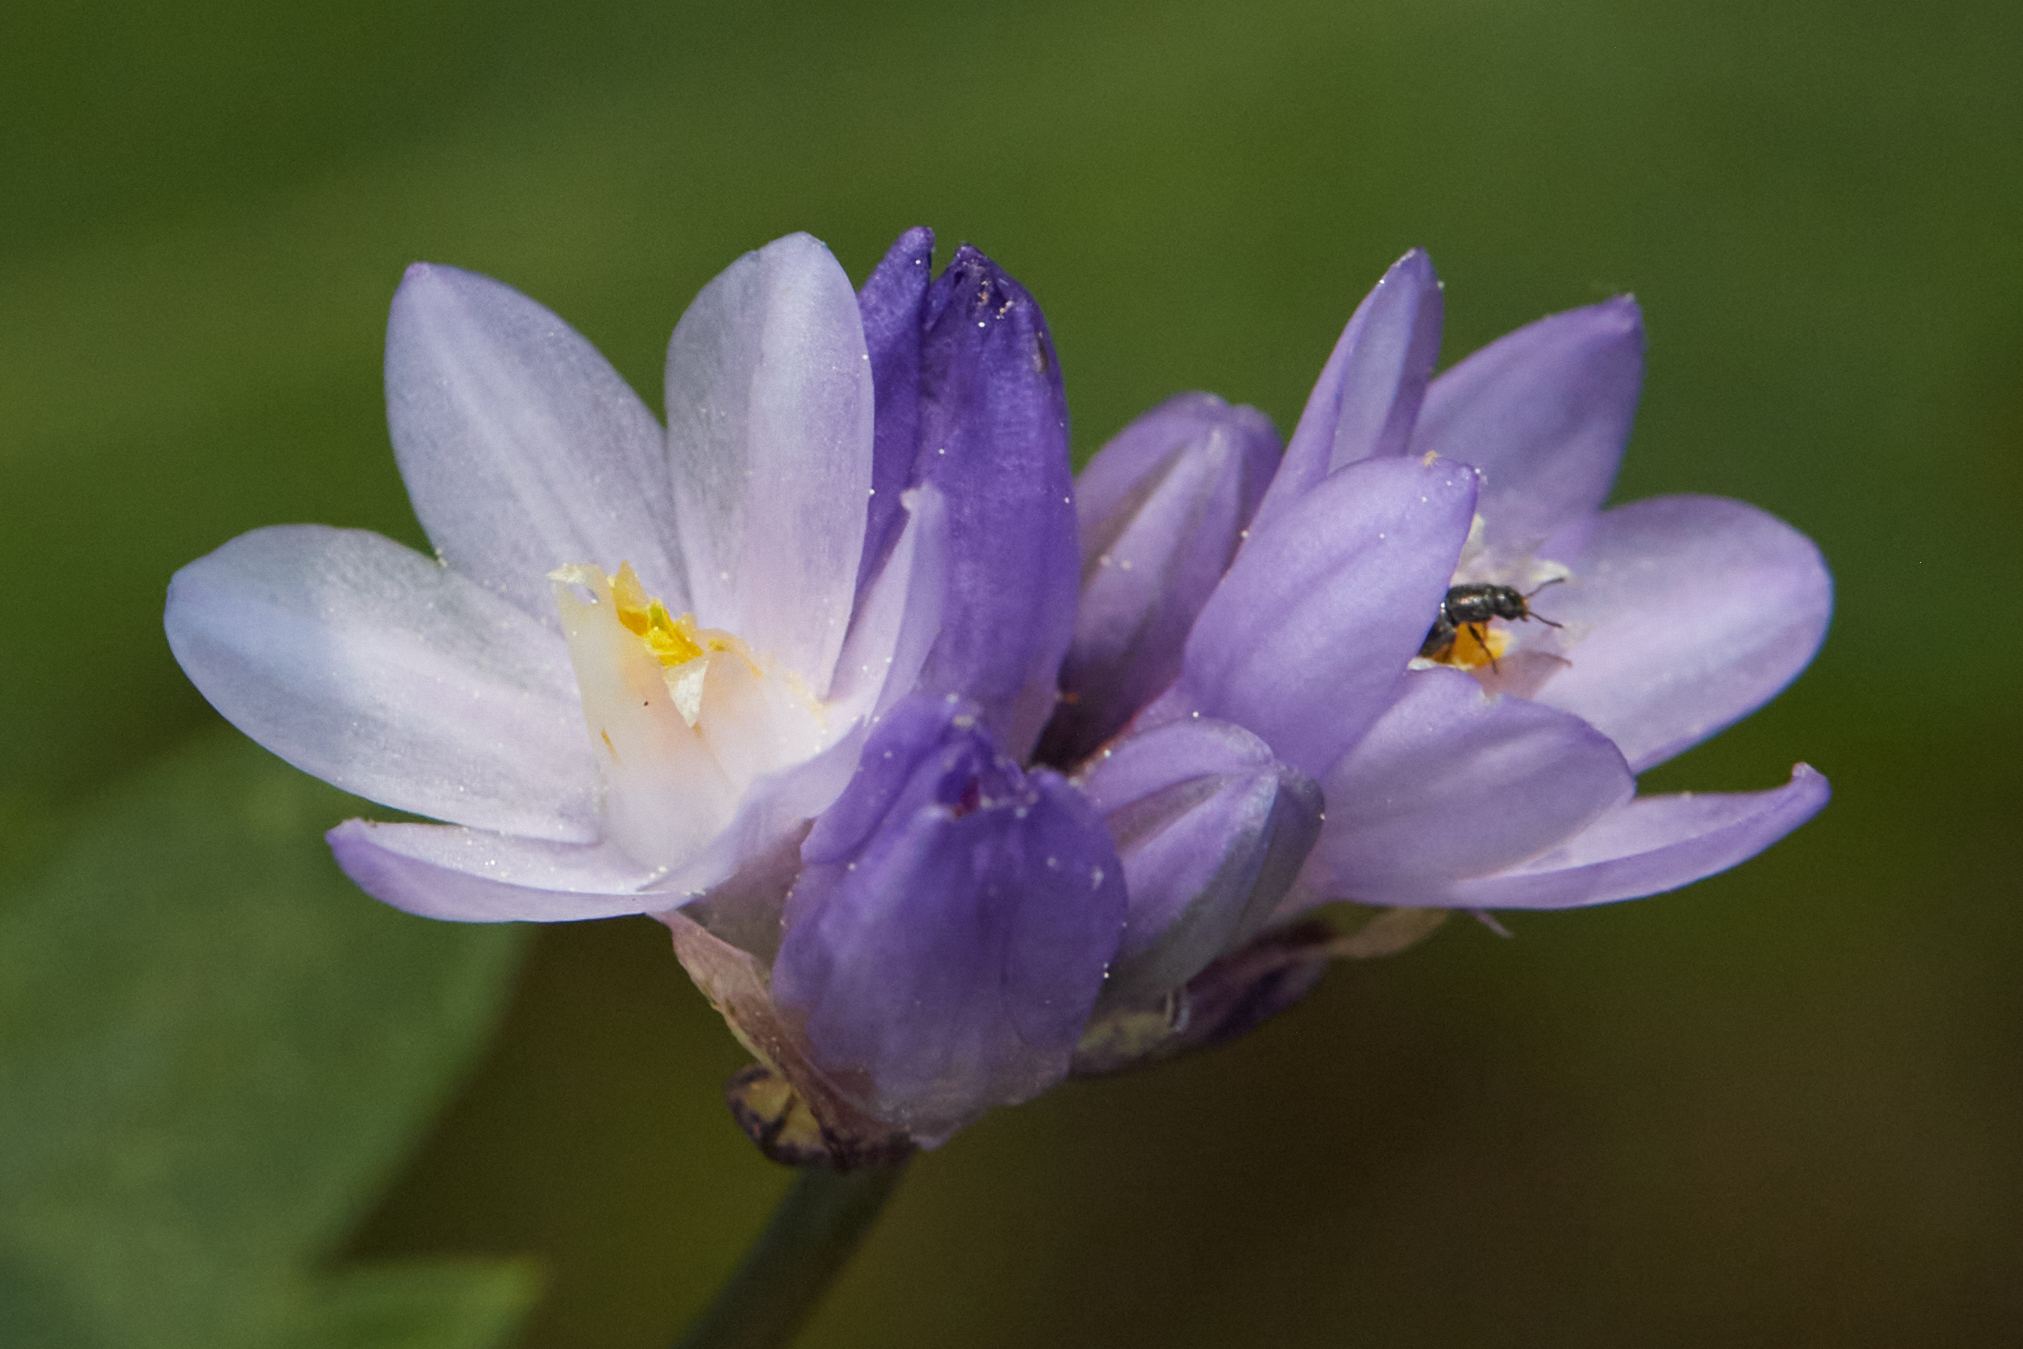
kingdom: Plantae
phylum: Tracheophyta
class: Liliopsida
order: Asparagales
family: Asparagaceae
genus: Dipterostemon
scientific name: Dipterostemon capitatus
